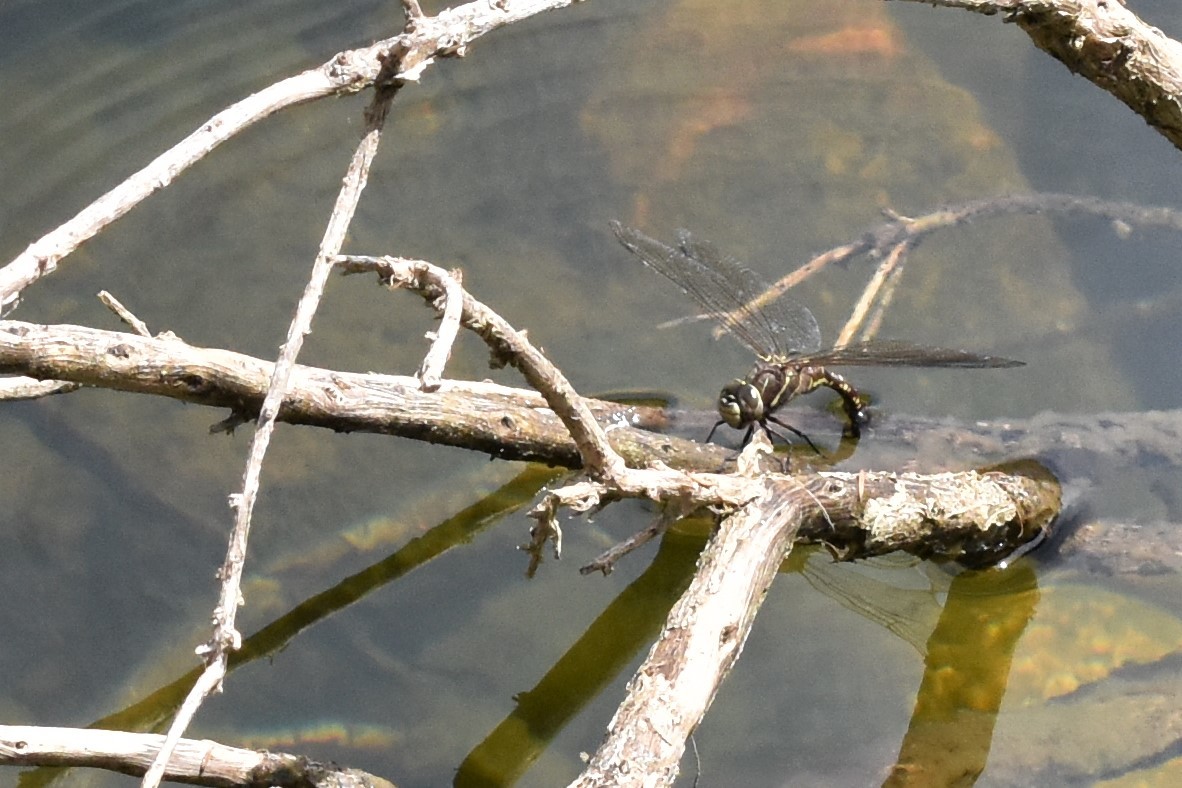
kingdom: Animalia
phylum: Arthropoda
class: Insecta
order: Odonata
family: Aeshnidae
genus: Aeshna
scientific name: Aeshna brevistyla
